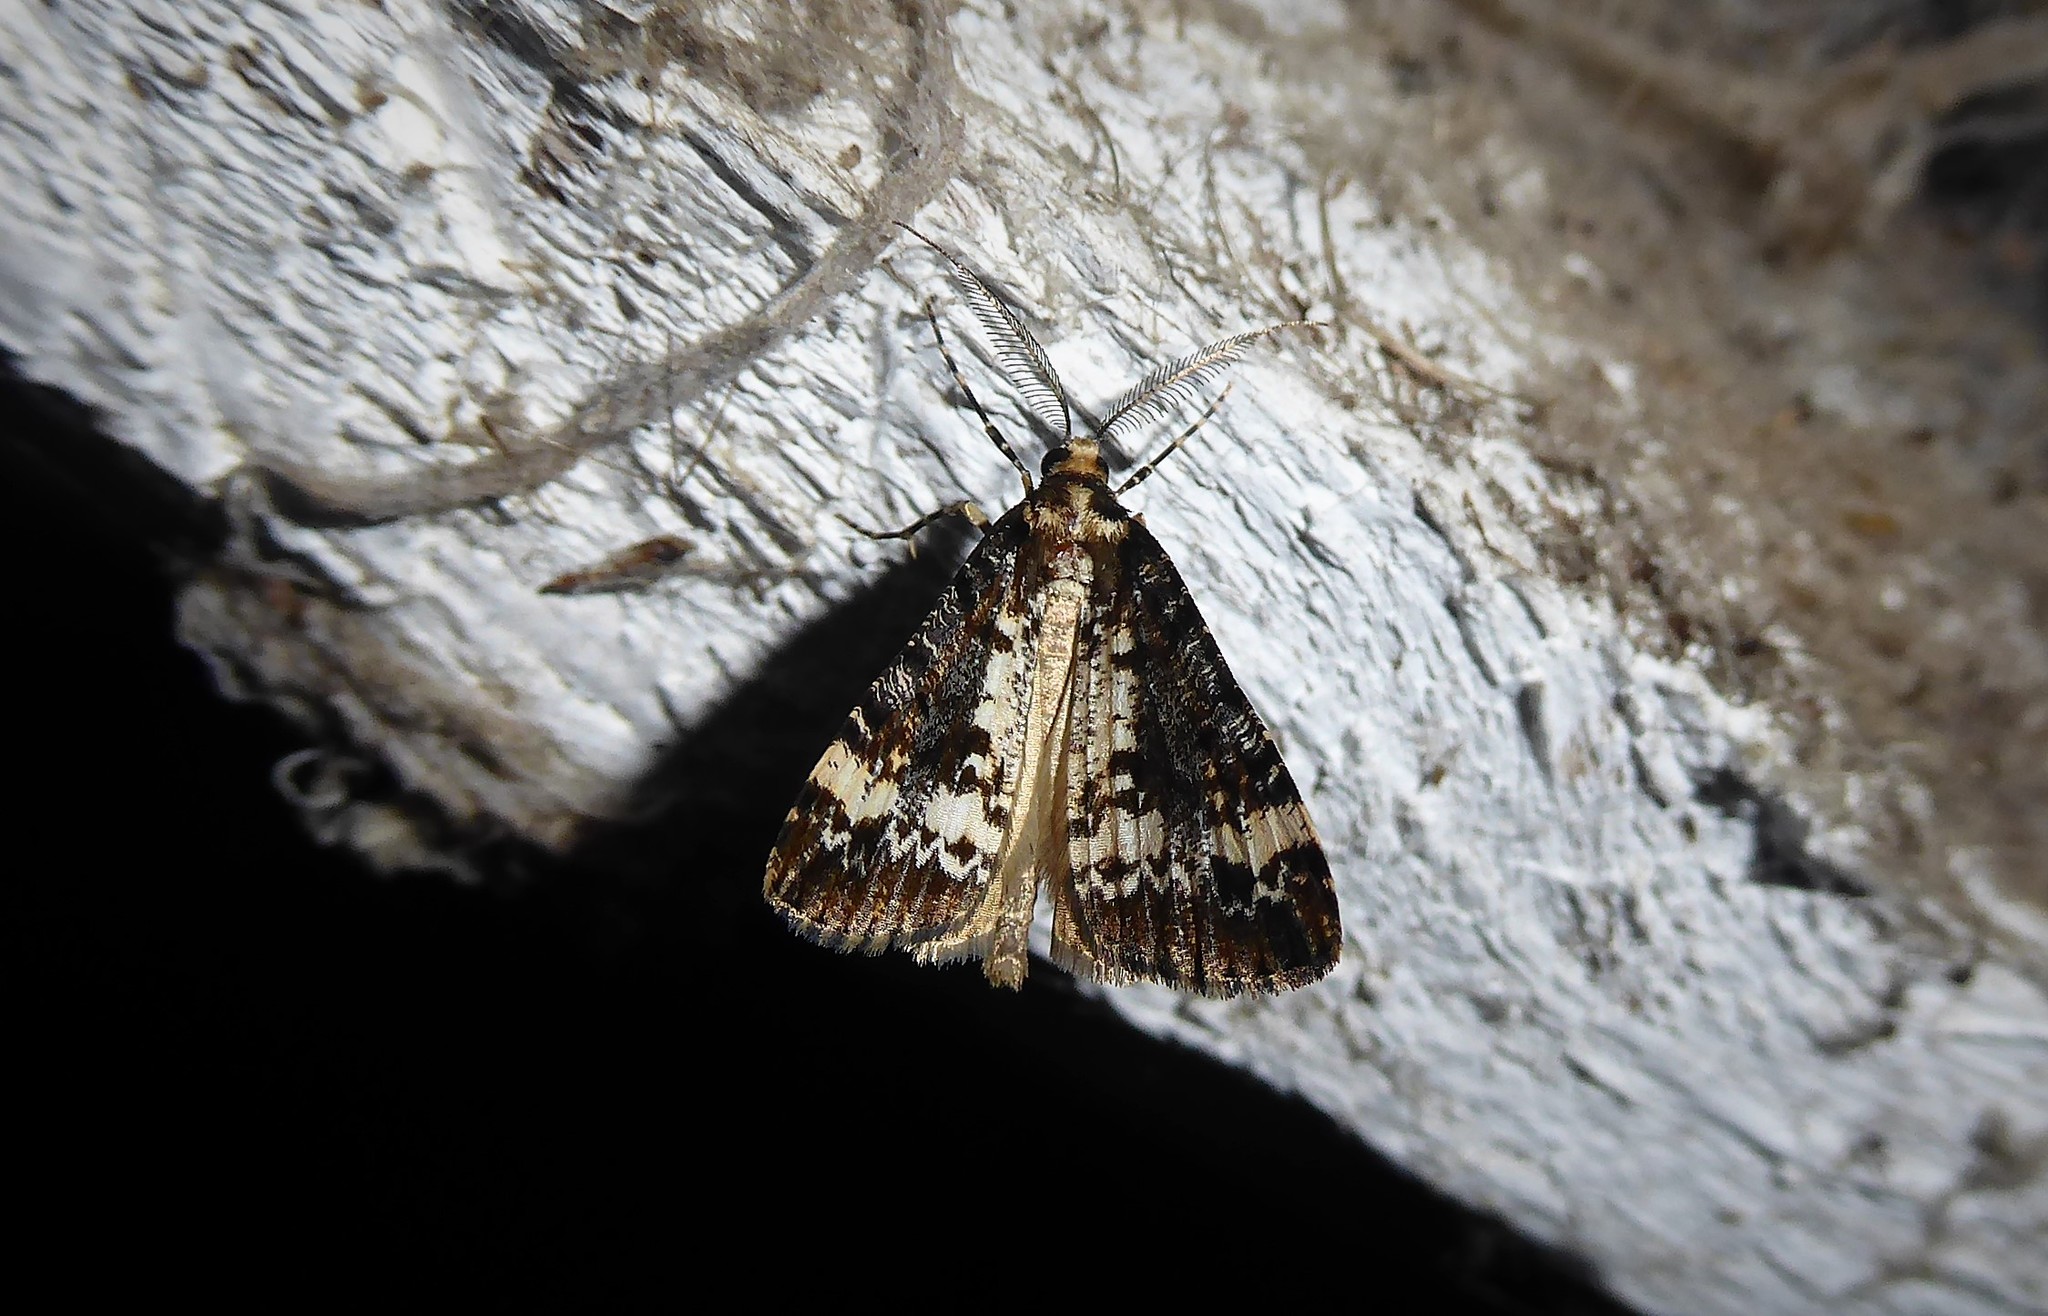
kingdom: Animalia
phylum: Arthropoda
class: Insecta
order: Lepidoptera
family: Geometridae
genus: Pseudocoremia
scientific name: Pseudocoremia leucelaea
